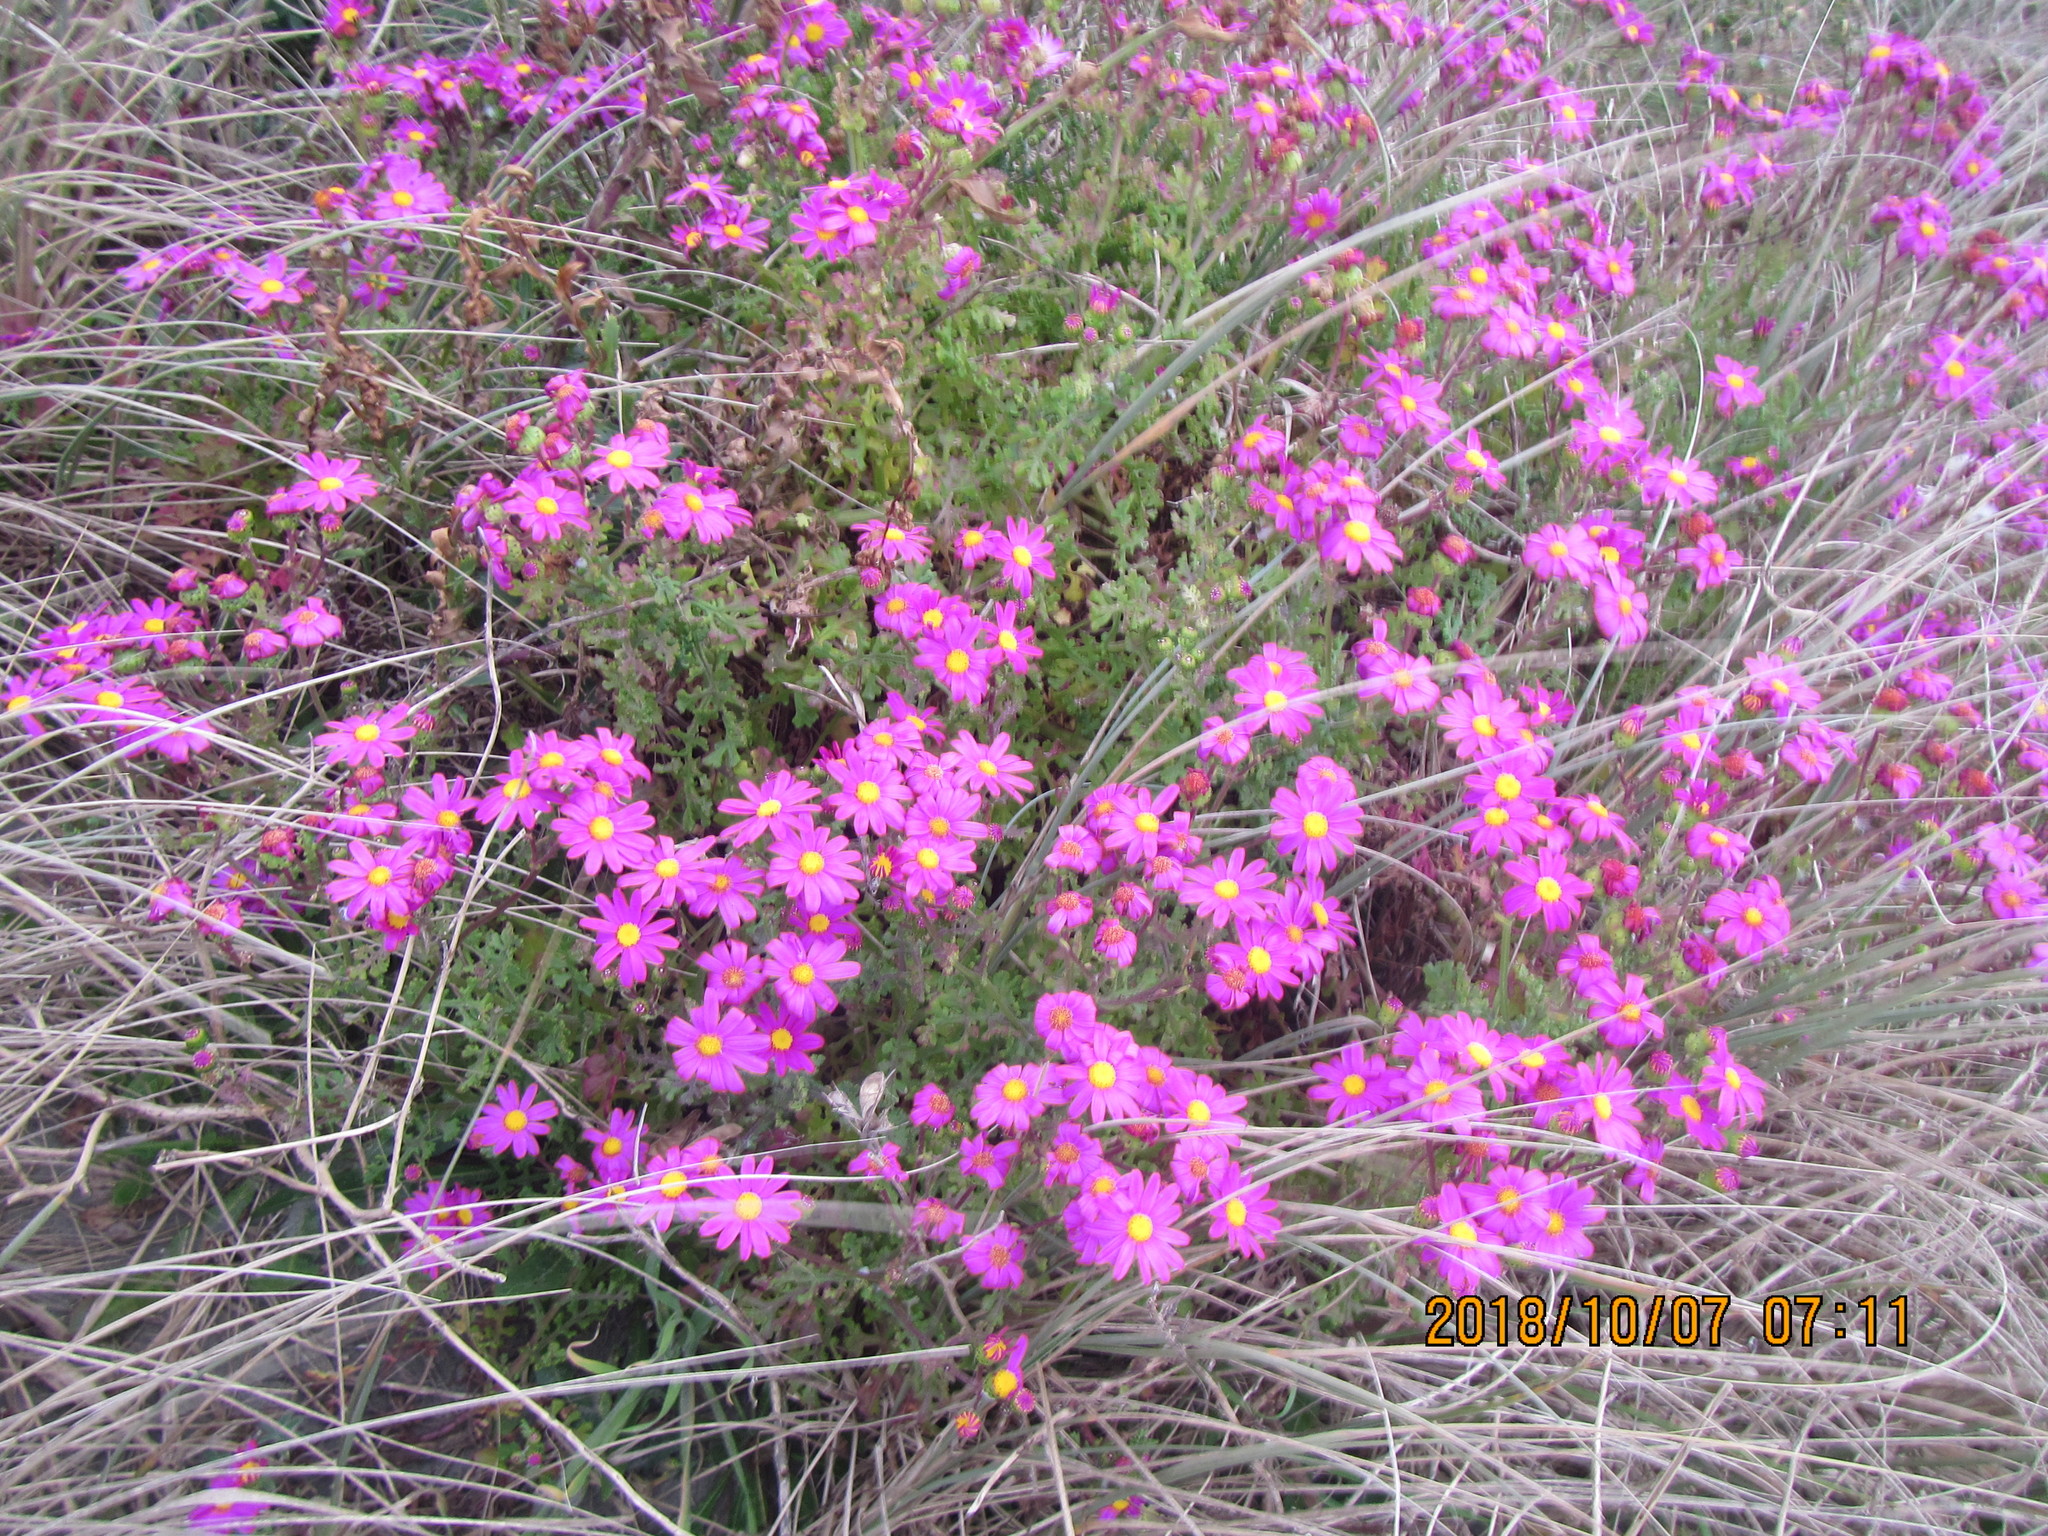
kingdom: Plantae
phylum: Tracheophyta
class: Magnoliopsida
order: Asterales
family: Asteraceae
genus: Senecio
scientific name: Senecio elegans
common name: Purple groundsel
